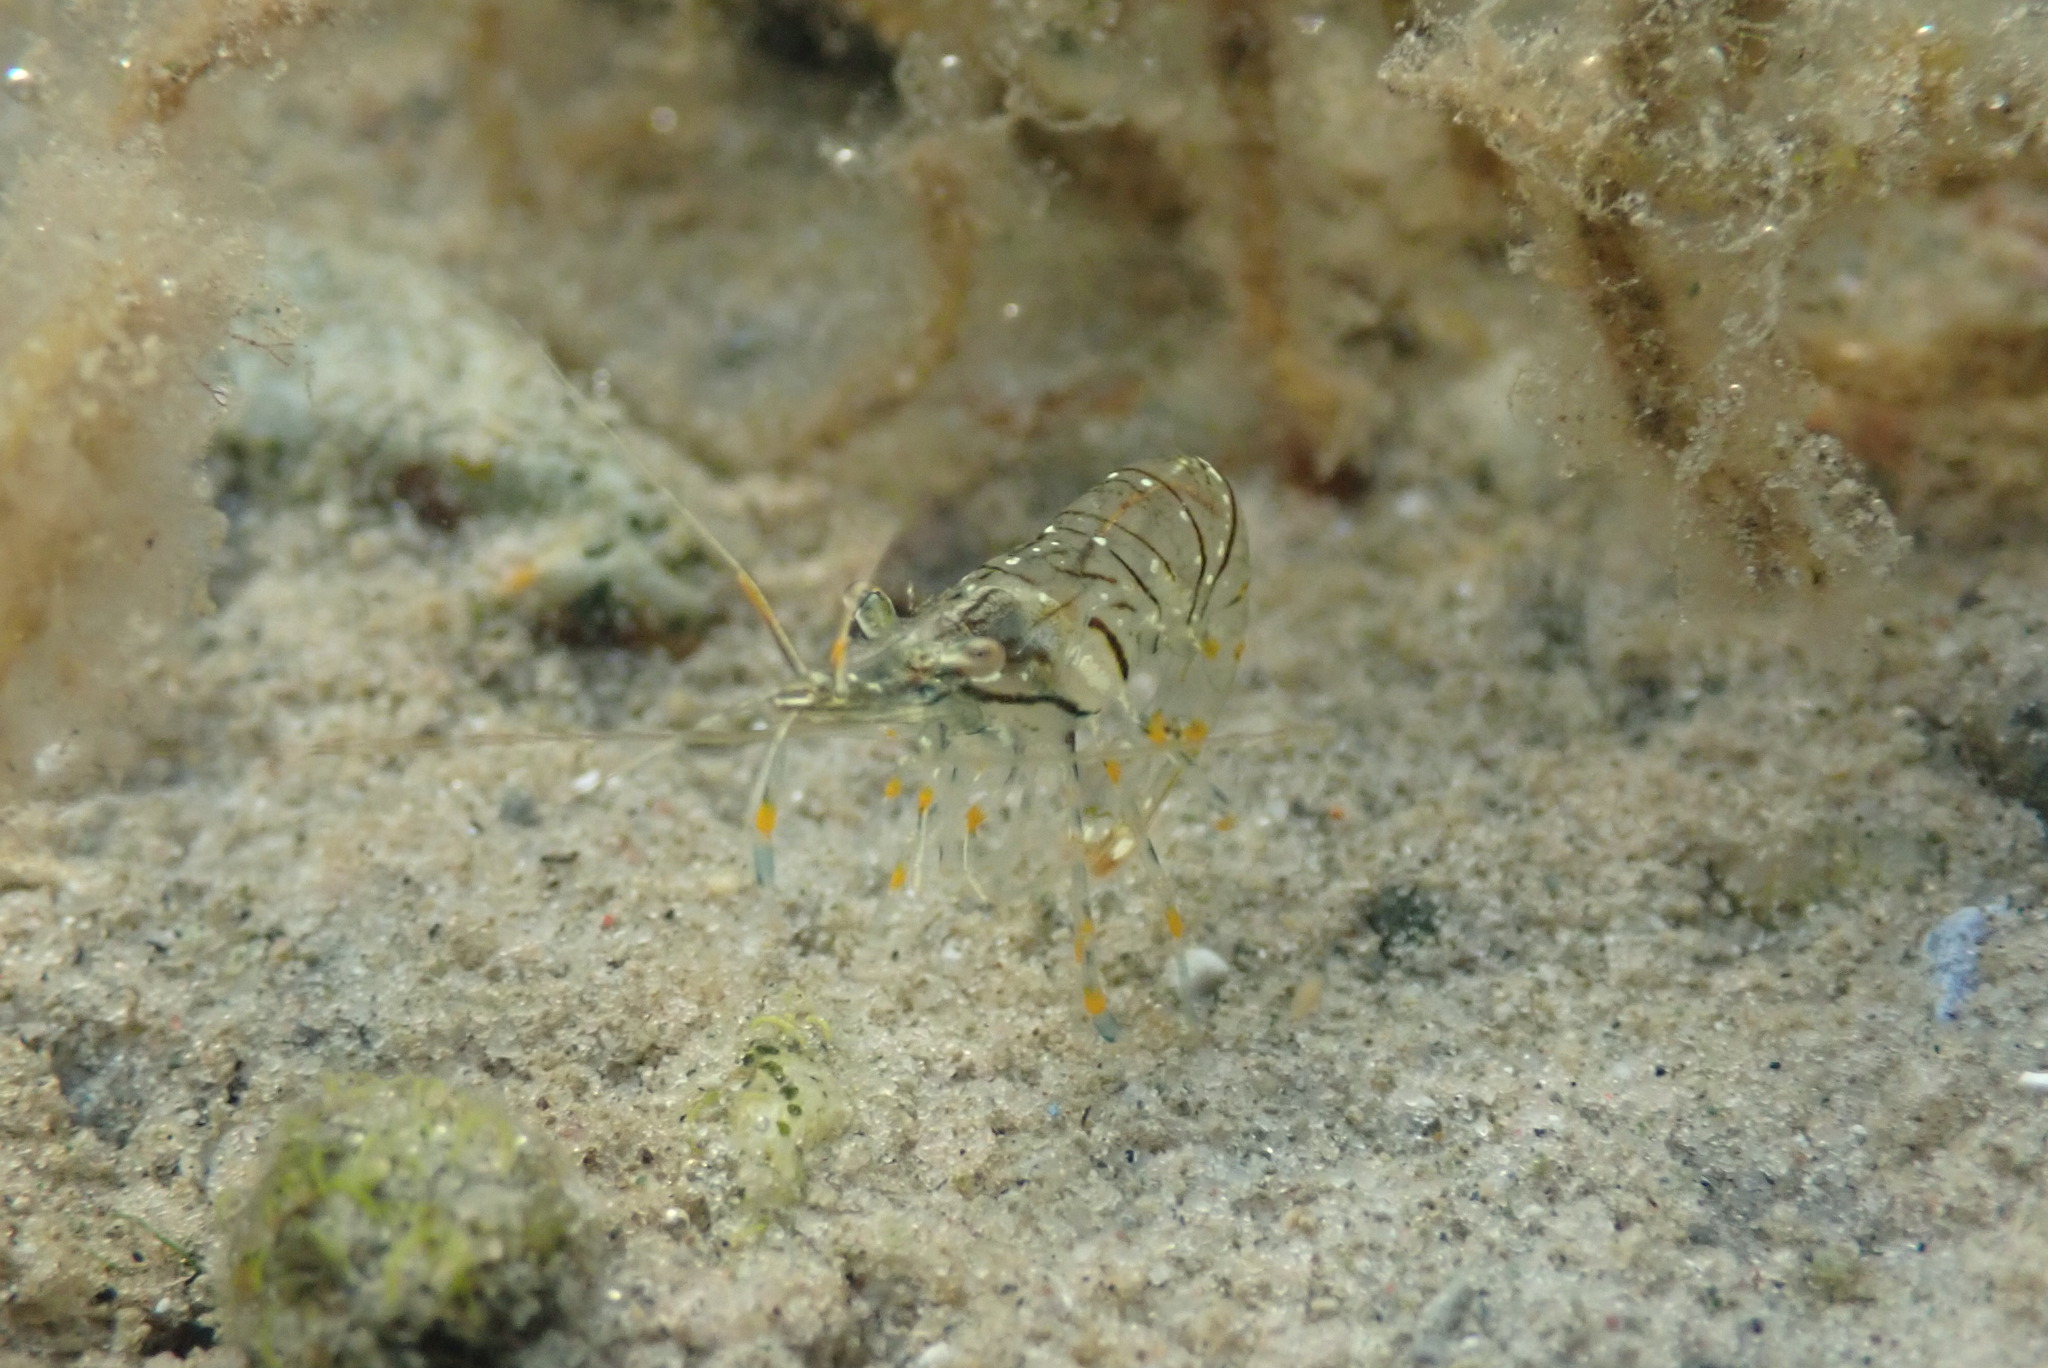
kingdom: Animalia
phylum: Arthropoda
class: Malacostraca
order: Decapoda
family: Palaemonidae
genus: Palaemon
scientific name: Palaemon elegans
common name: Grass prawm
